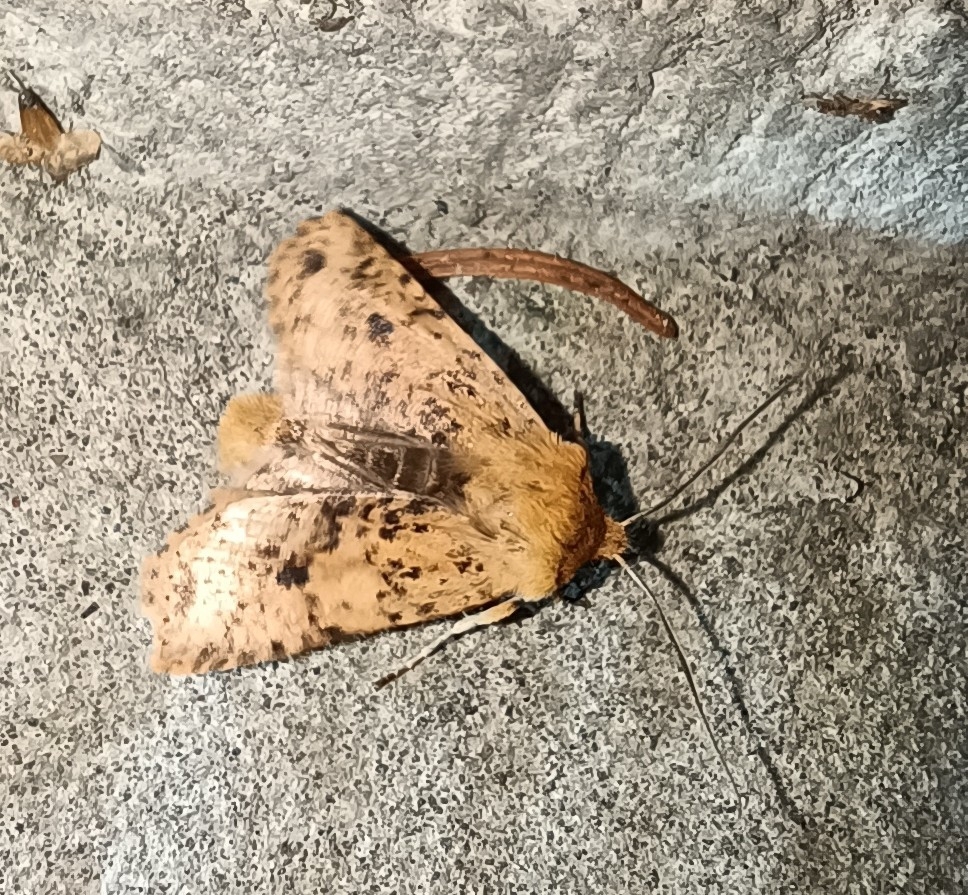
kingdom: Animalia
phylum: Arthropoda
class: Insecta
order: Lepidoptera
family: Noctuidae
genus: Conistra
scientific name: Conistra rubiginea
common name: Dotted chestnut
